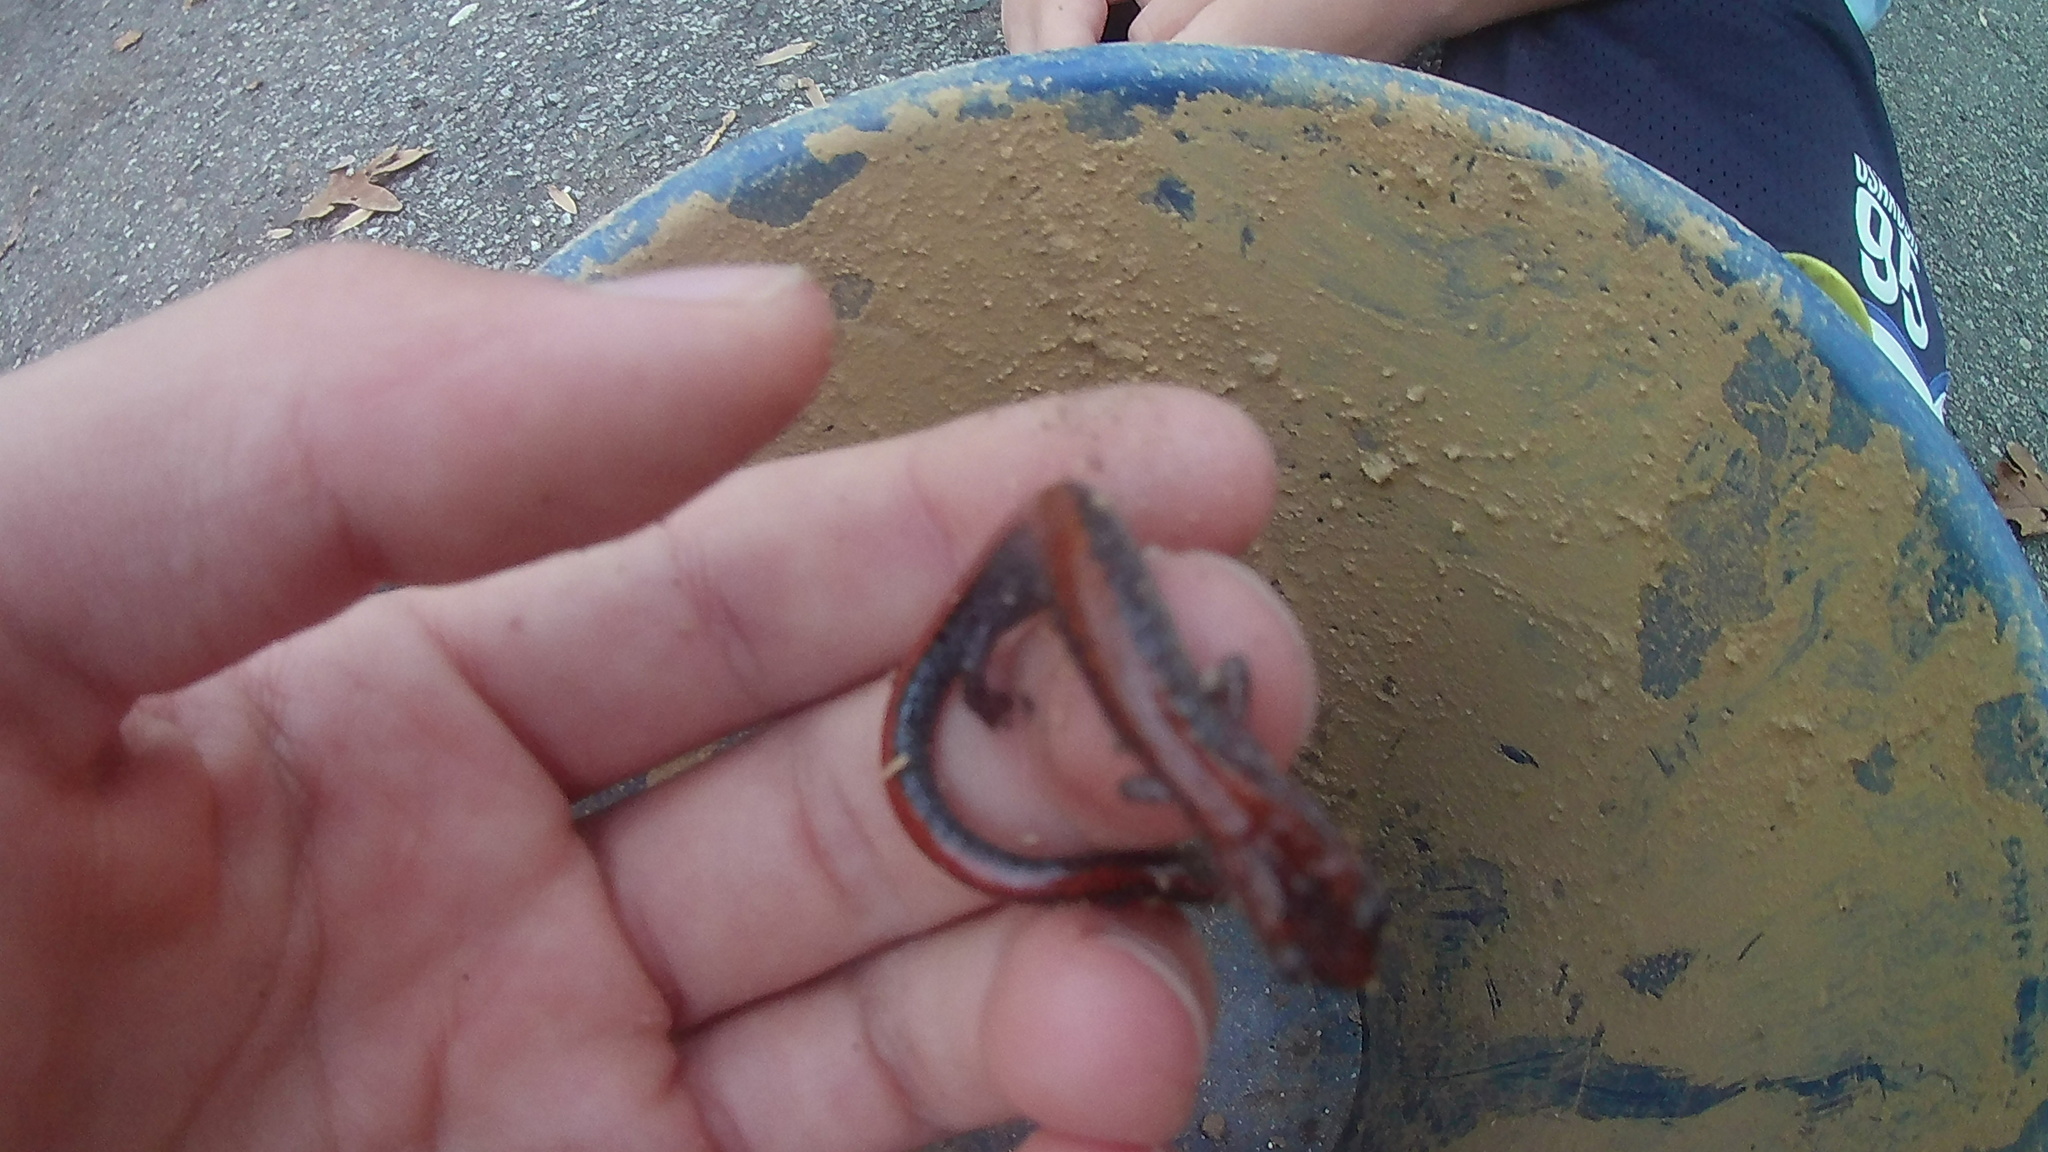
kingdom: Animalia
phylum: Chordata
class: Amphibia
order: Caudata
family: Plethodontidae
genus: Plethodon
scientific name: Plethodon cinereus
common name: Redback salamander
